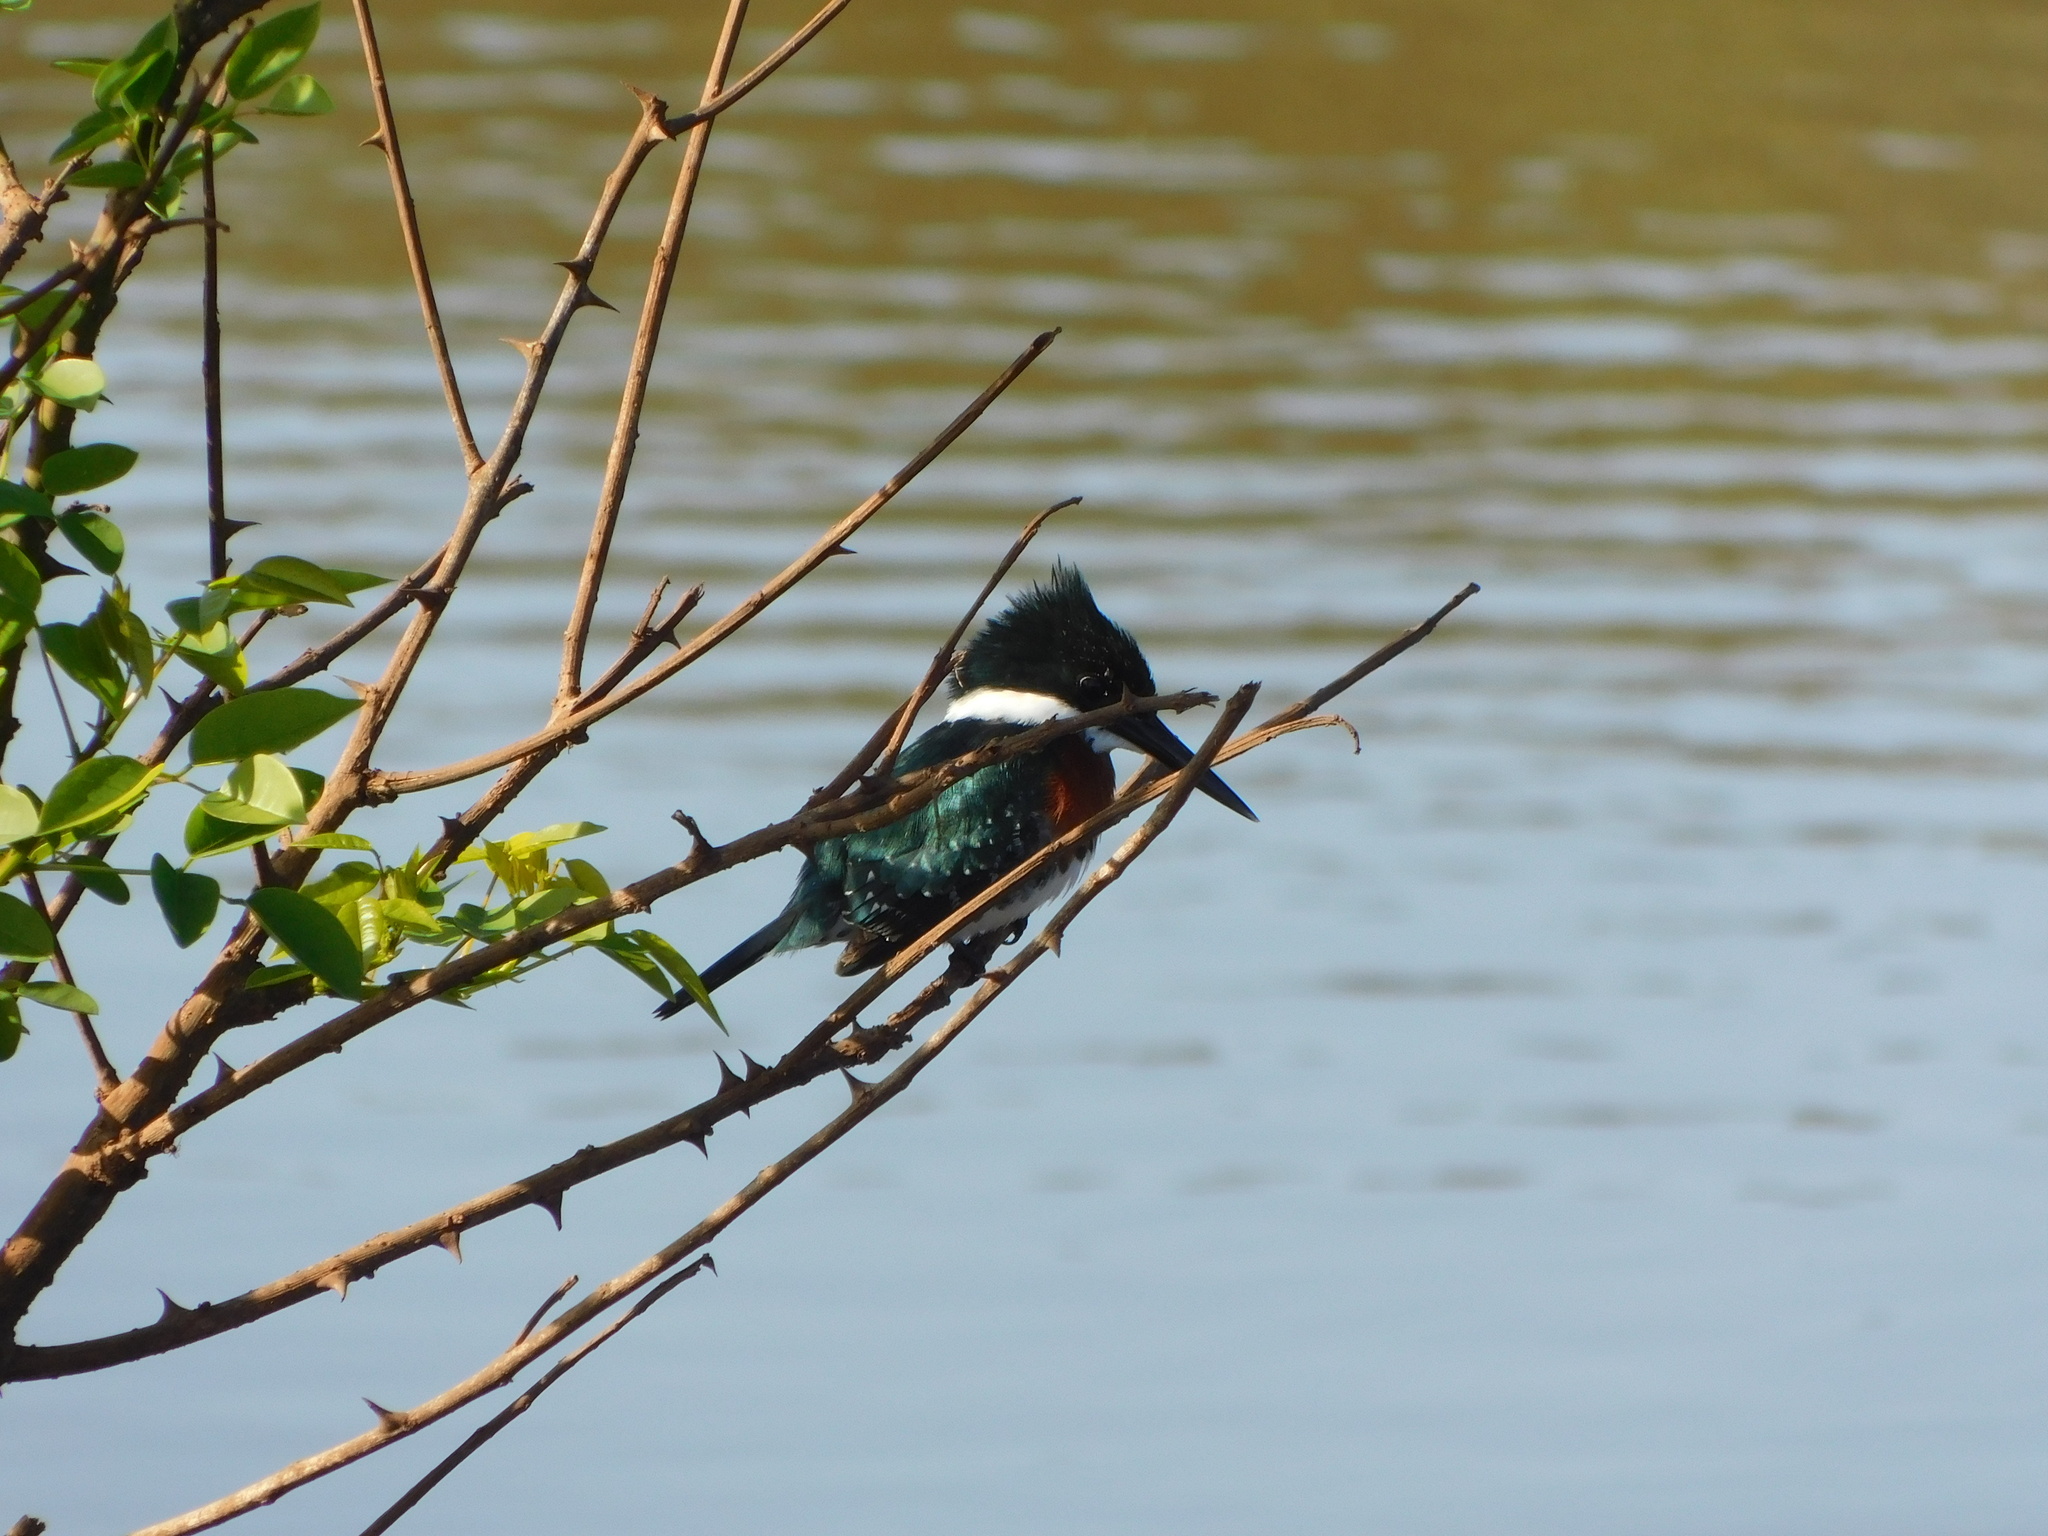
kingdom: Animalia
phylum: Chordata
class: Aves
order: Coraciiformes
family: Alcedinidae
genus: Chloroceryle
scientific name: Chloroceryle americana
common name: Green kingfisher
